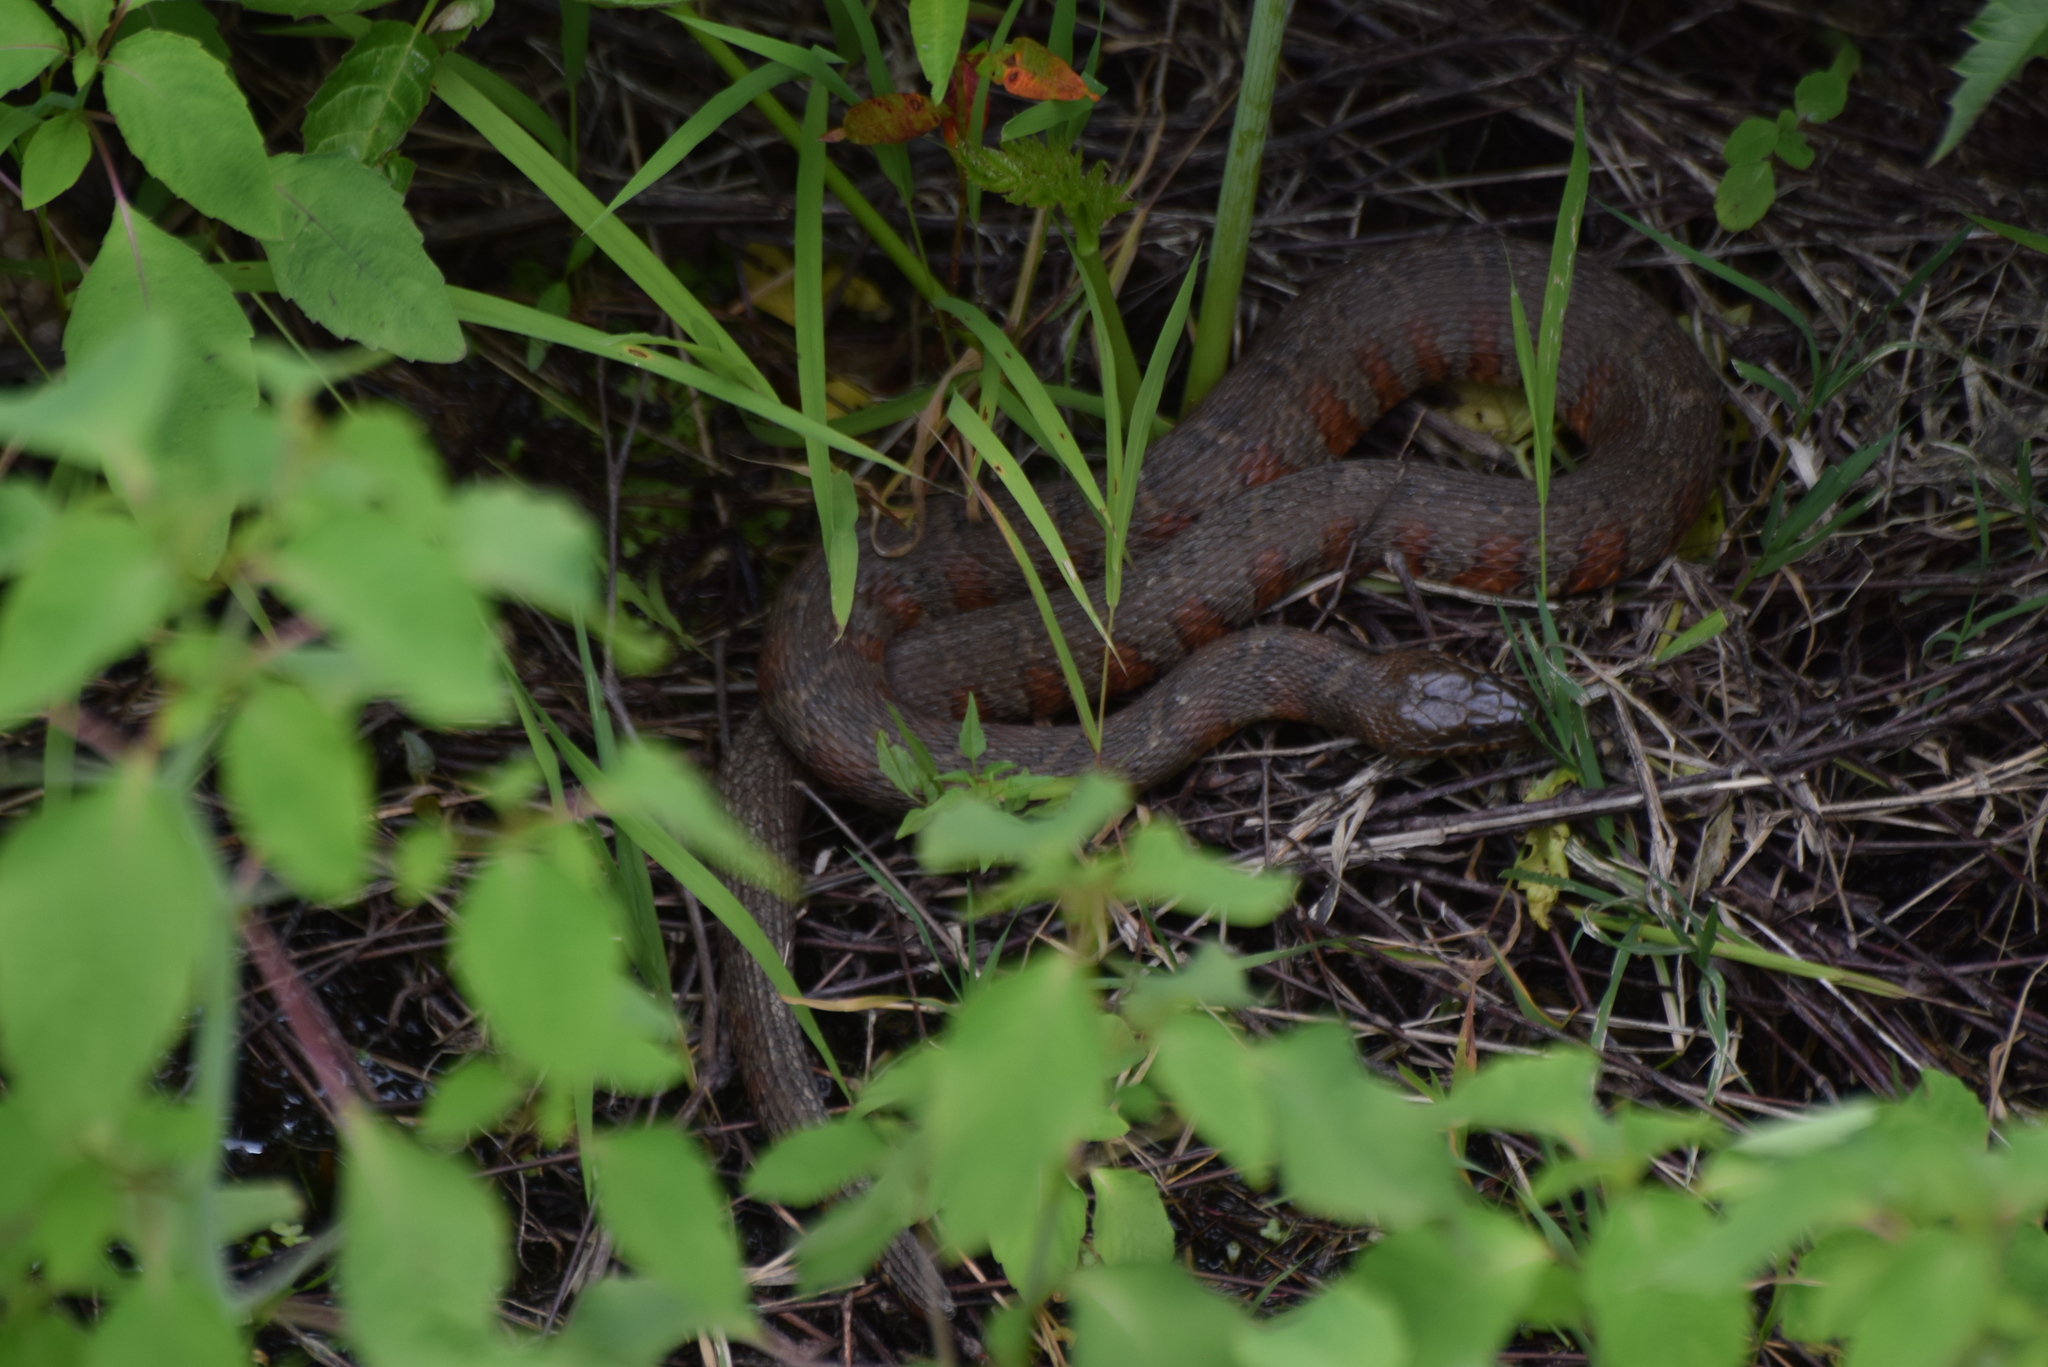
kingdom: Animalia
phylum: Chordata
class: Squamata
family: Colubridae
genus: Nerodia
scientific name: Nerodia sipedon
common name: Northern water snake
